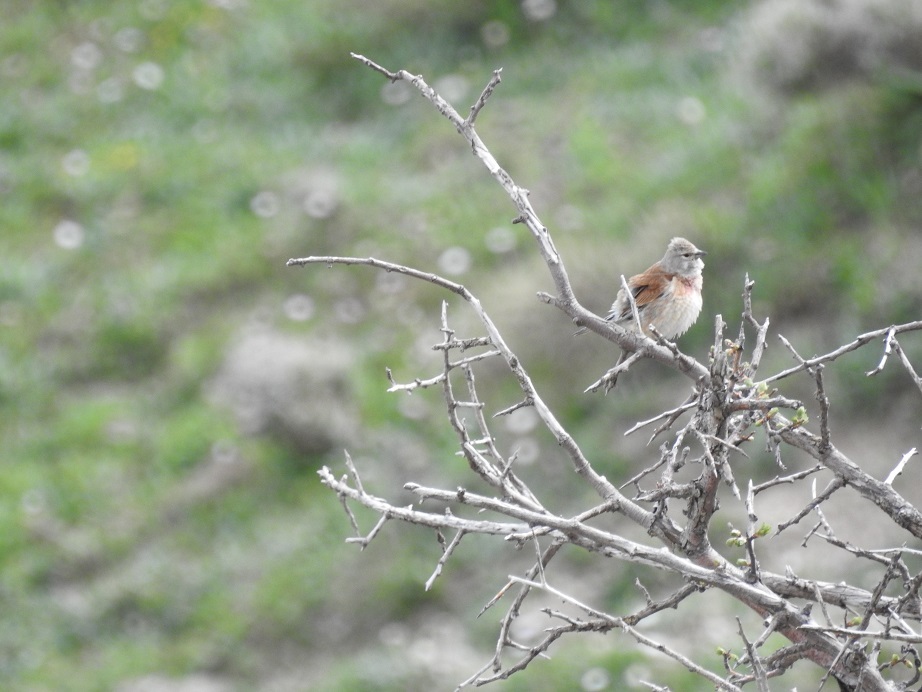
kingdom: Animalia
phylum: Chordata
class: Aves
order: Passeriformes
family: Fringillidae
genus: Linaria
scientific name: Linaria cannabina
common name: Common linnet
